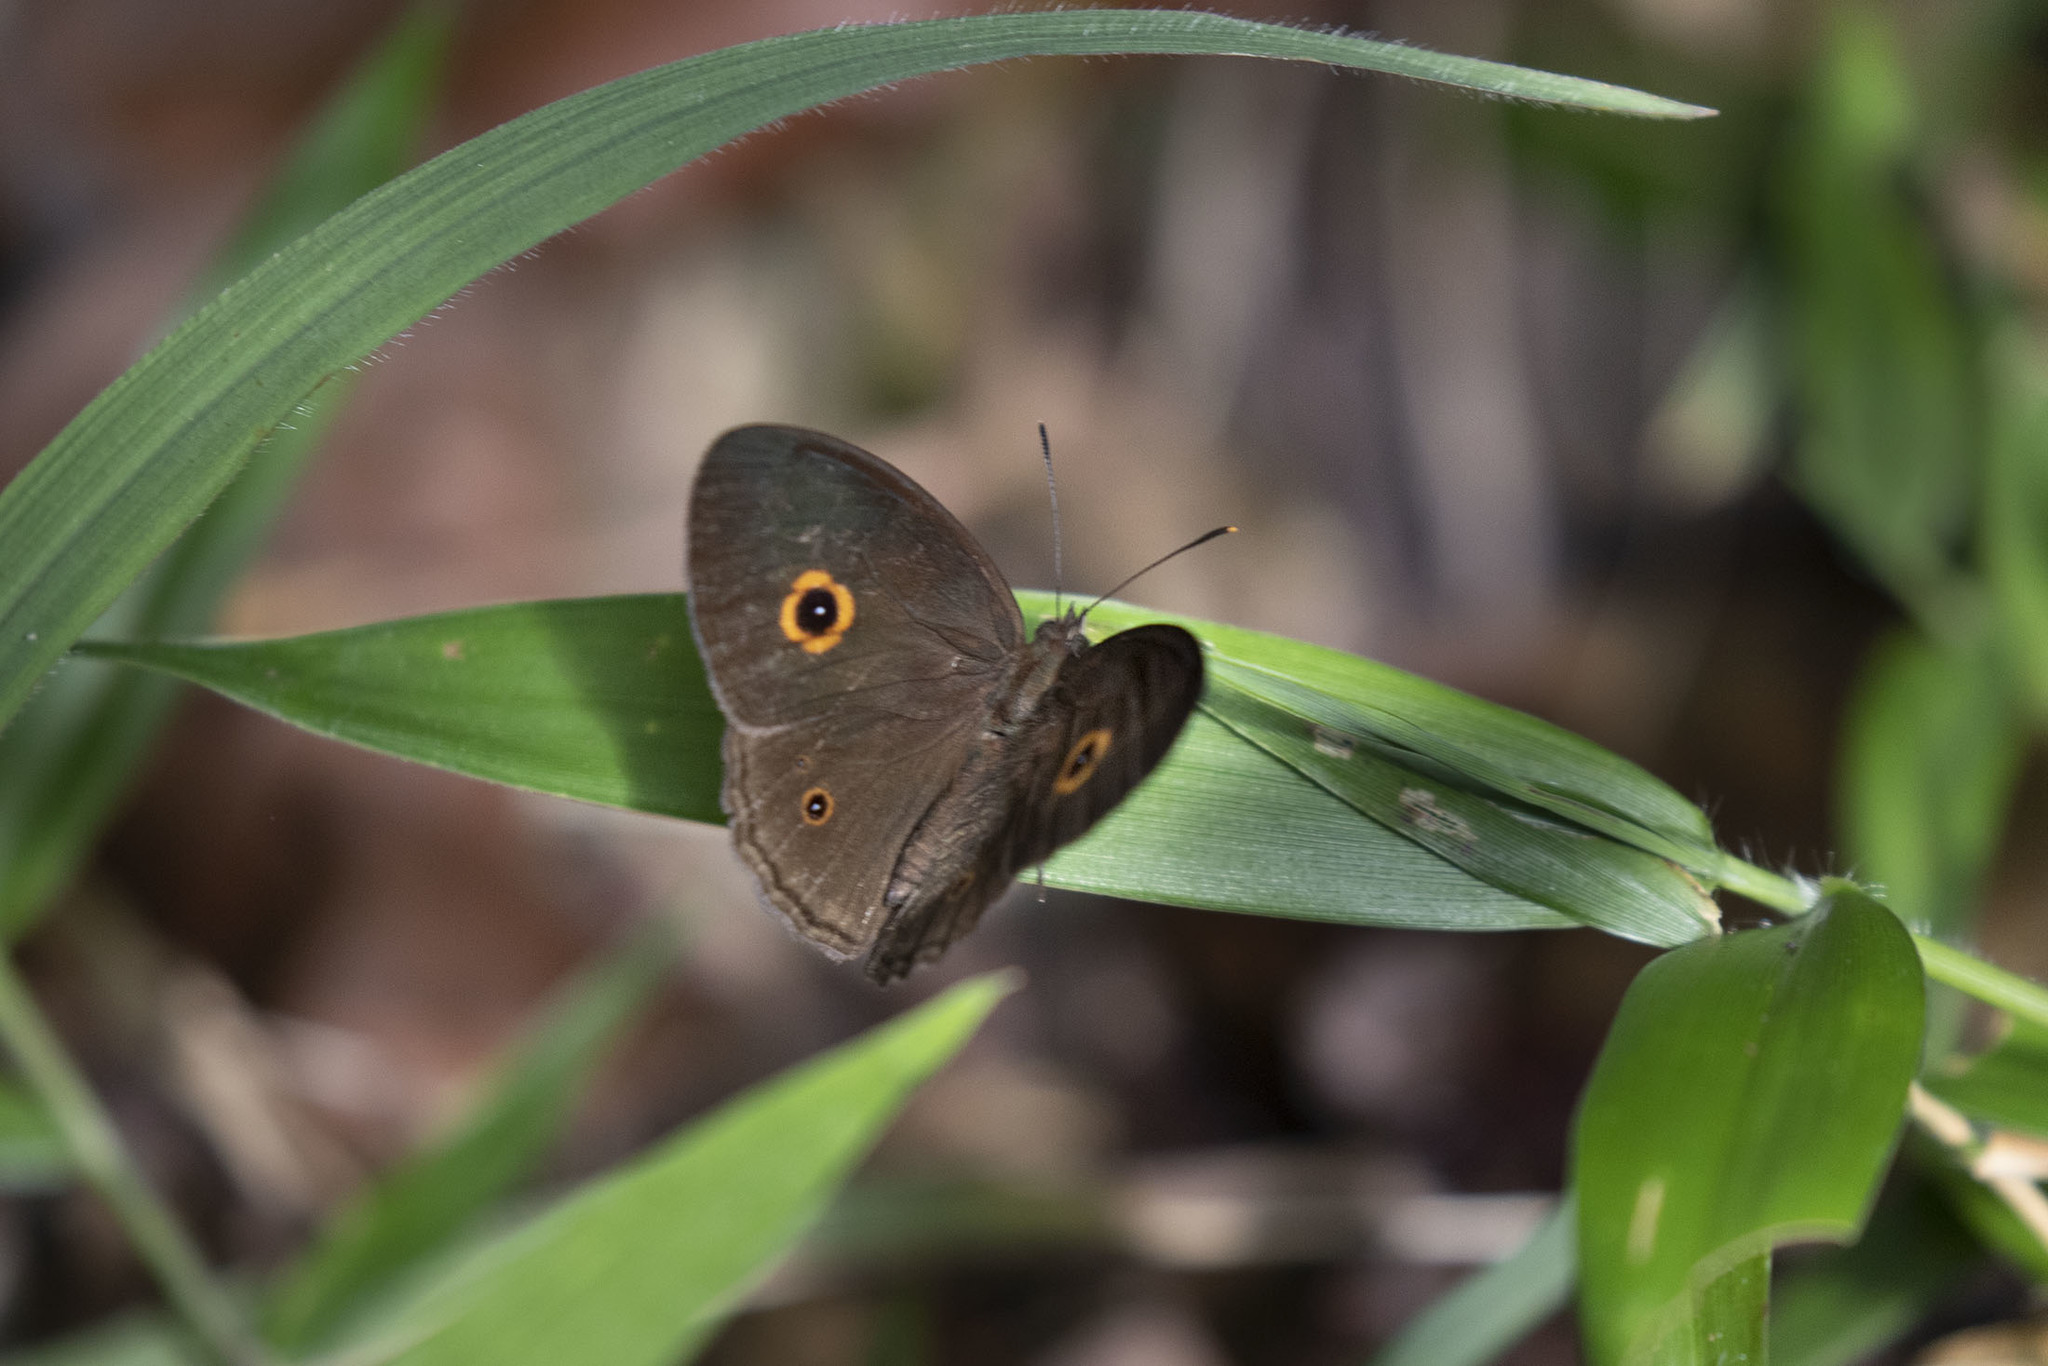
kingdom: Animalia
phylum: Arthropoda
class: Insecta
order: Lepidoptera
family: Nymphalidae
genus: Heteropsis
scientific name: Heteropsis vola
